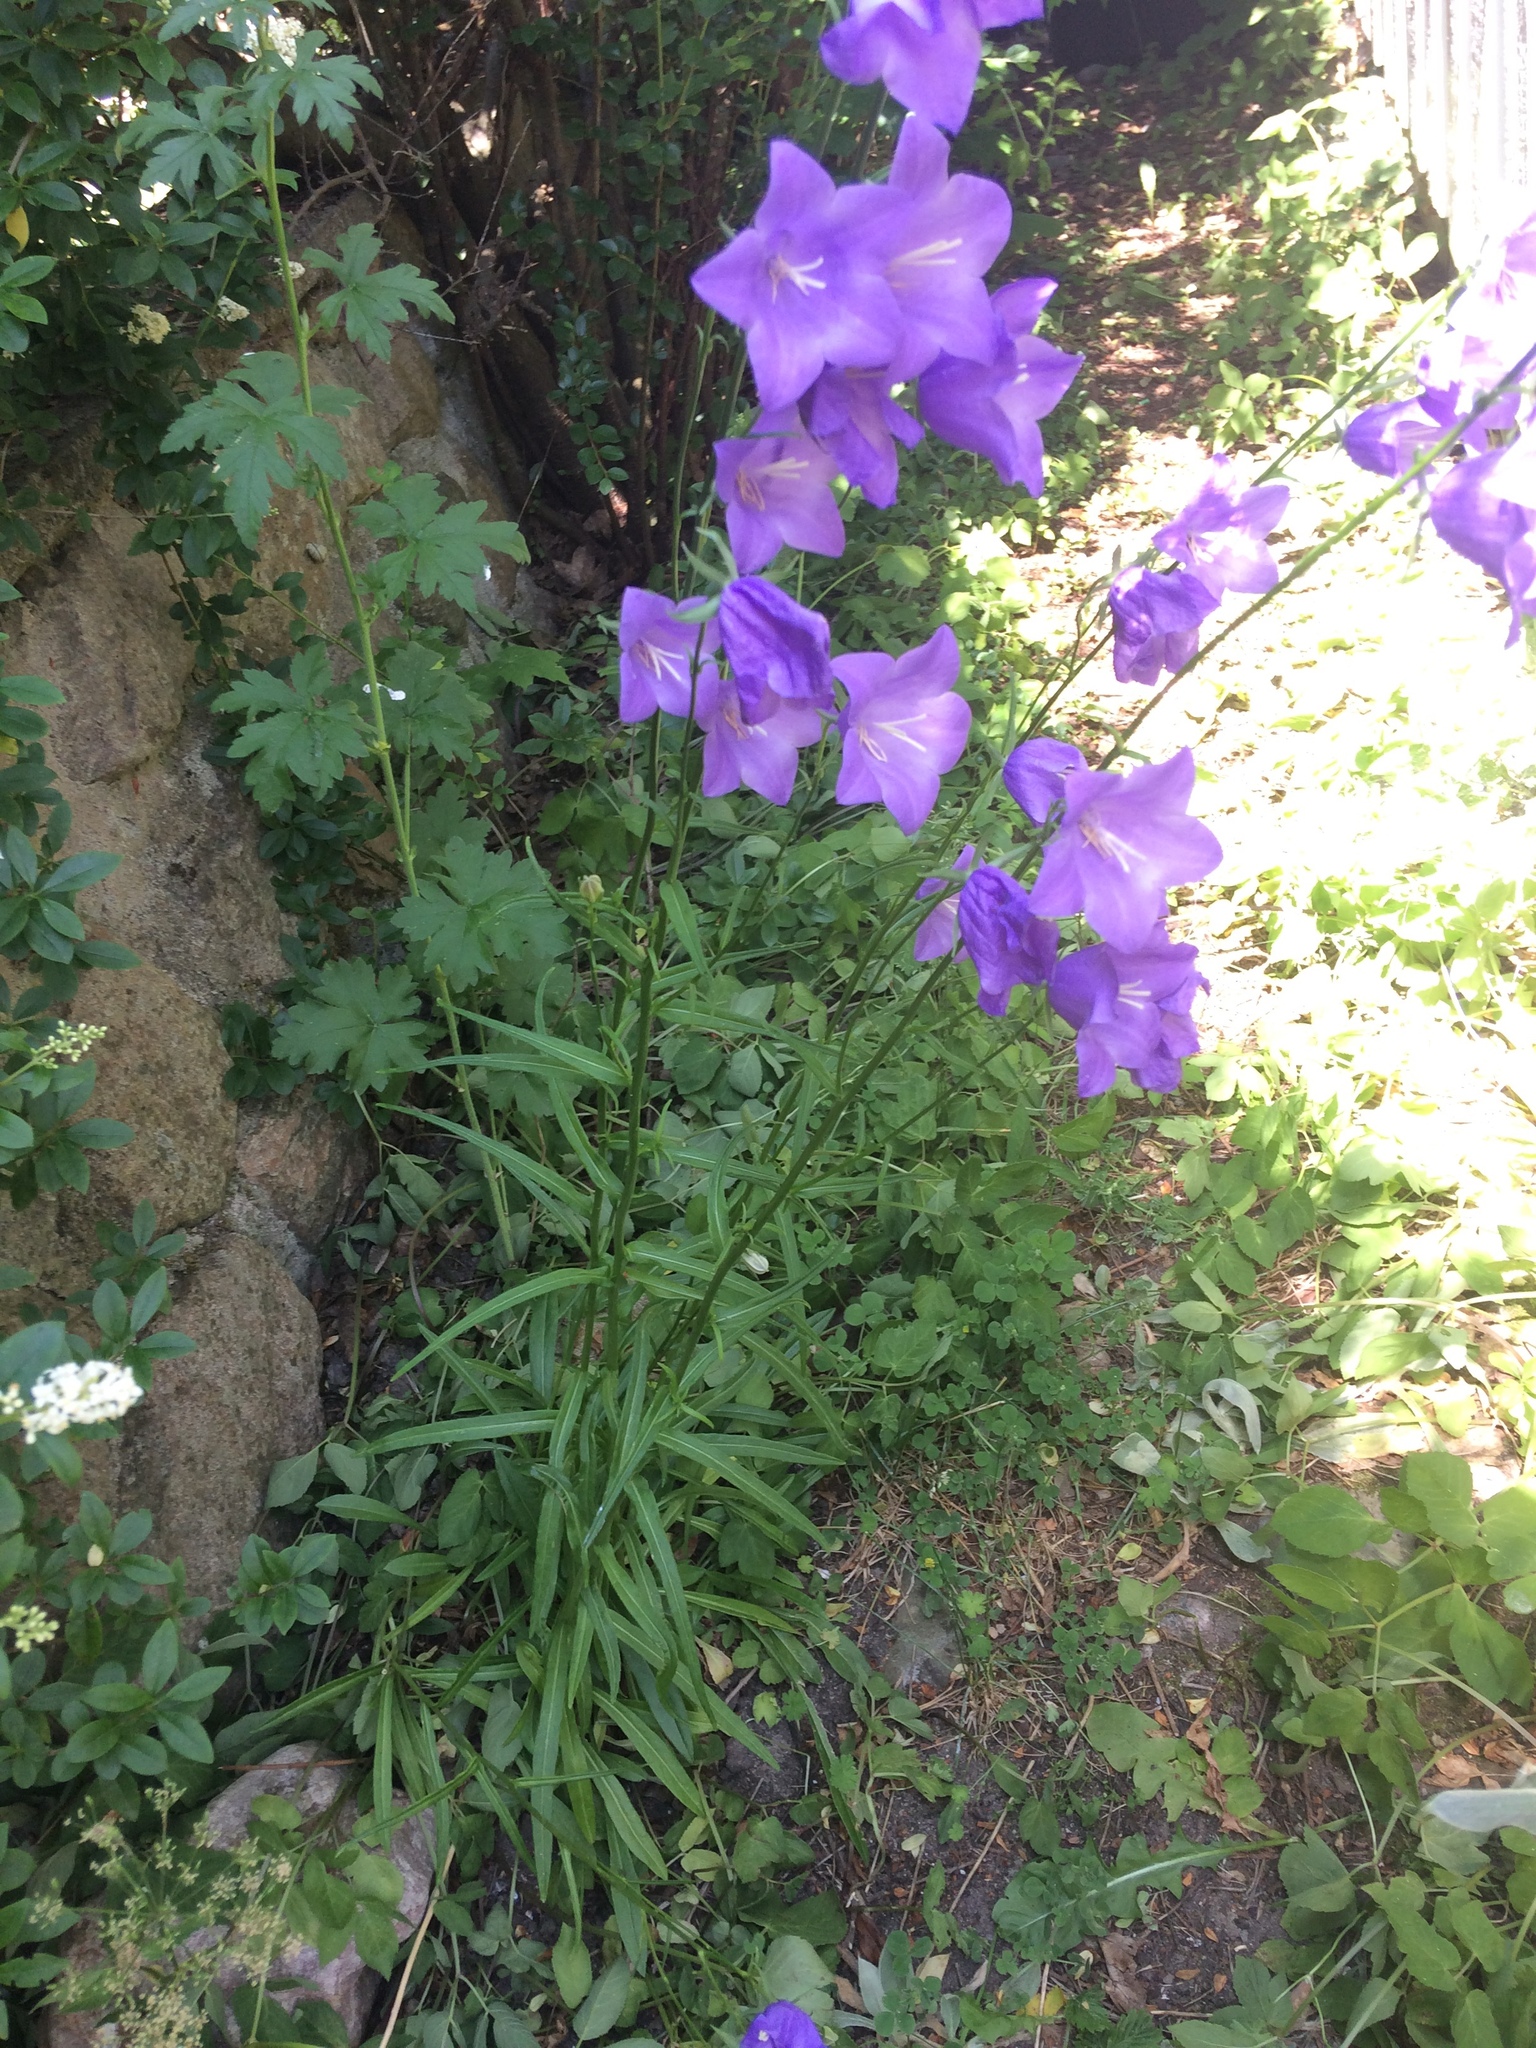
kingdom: Plantae
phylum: Tracheophyta
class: Magnoliopsida
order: Asterales
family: Campanulaceae
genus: Campanula
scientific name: Campanula persicifolia
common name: Peach-leaved bellflower
